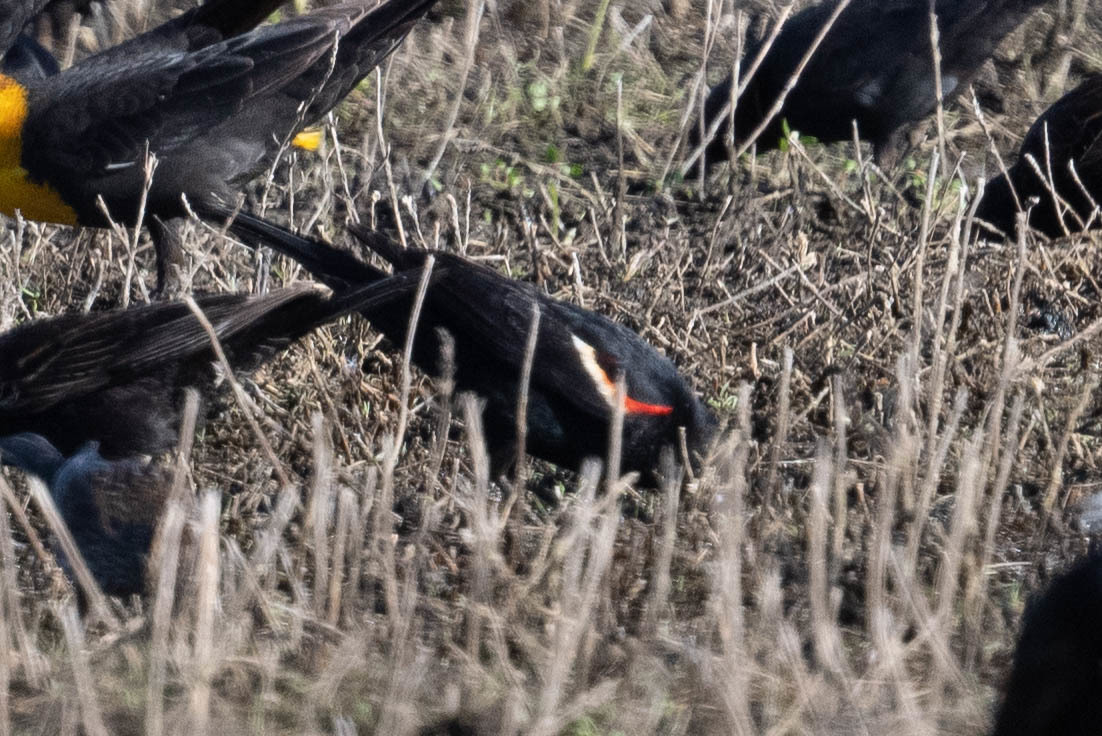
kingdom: Animalia
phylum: Chordata
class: Aves
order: Passeriformes
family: Icteridae
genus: Agelaius
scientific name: Agelaius phoeniceus
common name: Red-winged blackbird
